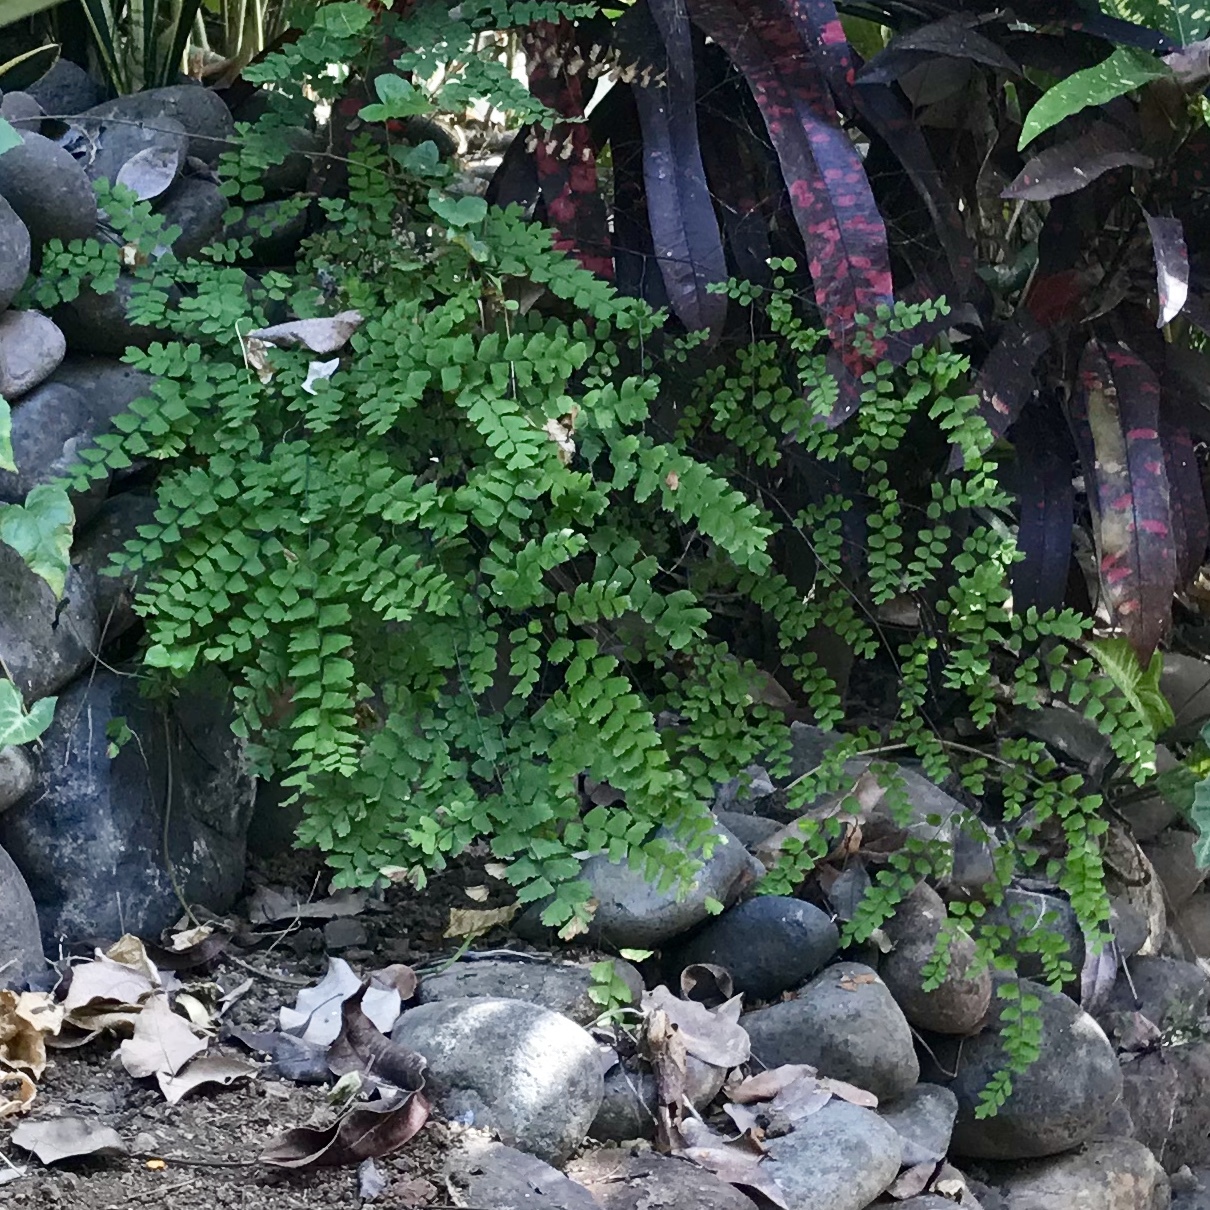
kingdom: Plantae
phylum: Tracheophyta
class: Polypodiopsida
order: Polypodiales
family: Pteridaceae
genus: Adiantum
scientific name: Adiantum amplum
